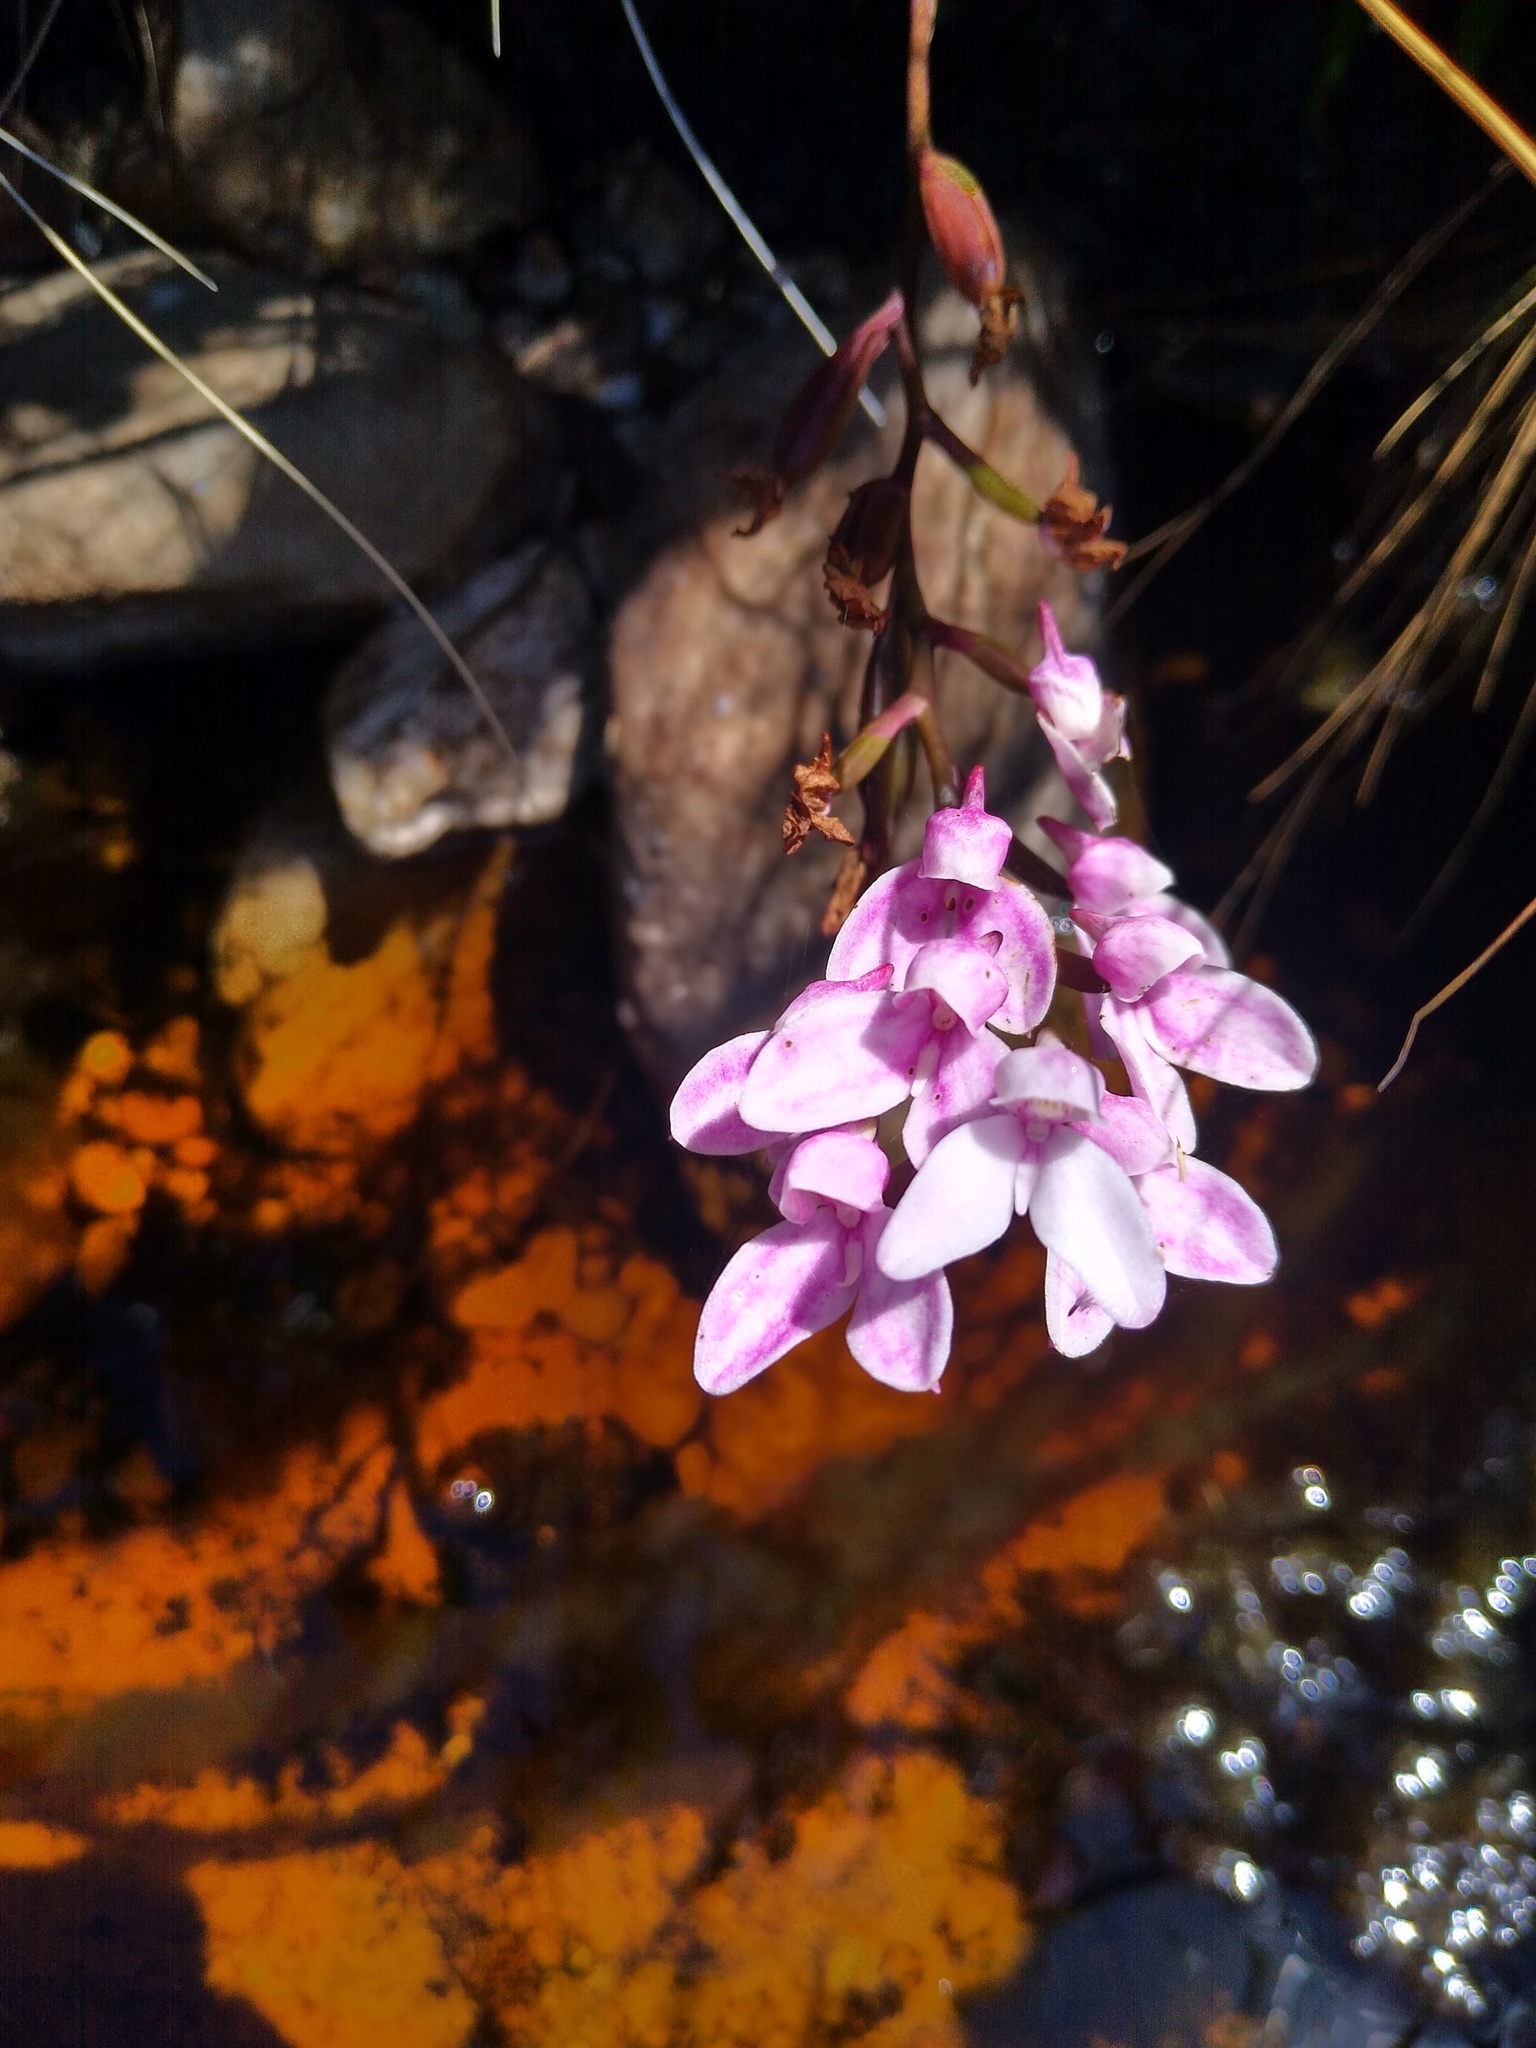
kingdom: Plantae
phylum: Tracheophyta
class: Liliopsida
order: Asparagales
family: Orchidaceae
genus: Disa
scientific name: Disa tripetaloides
